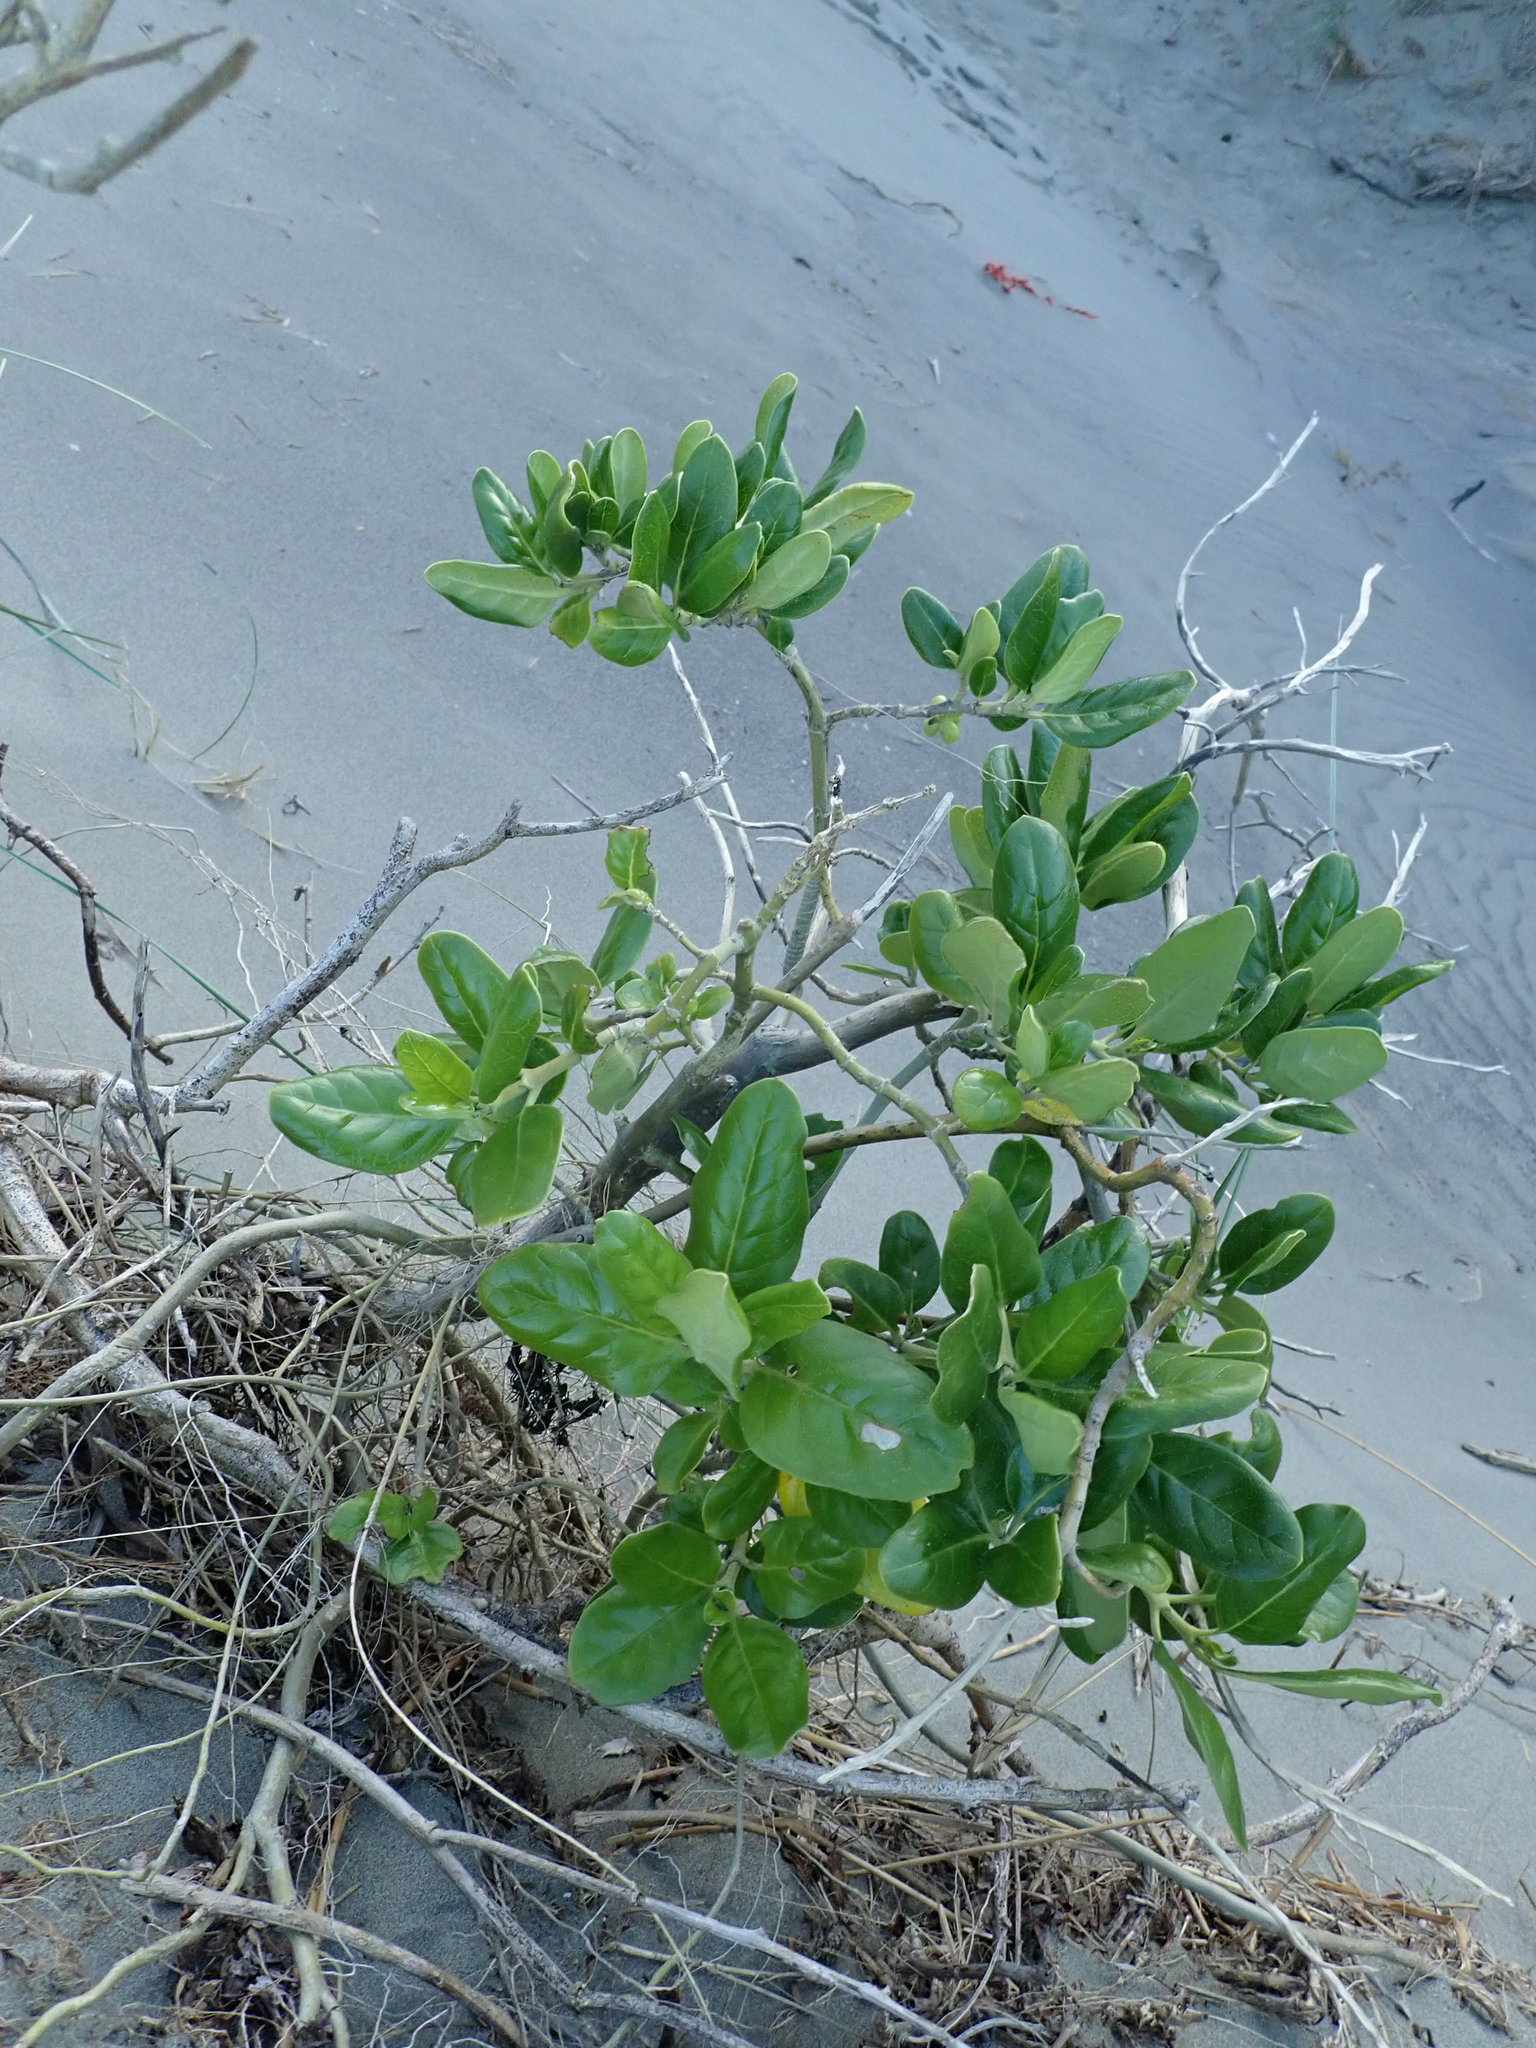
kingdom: Plantae
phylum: Tracheophyta
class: Magnoliopsida
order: Gentianales
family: Rubiaceae
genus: Coprosma
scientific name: Coprosma repens
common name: Tree bedstraw
